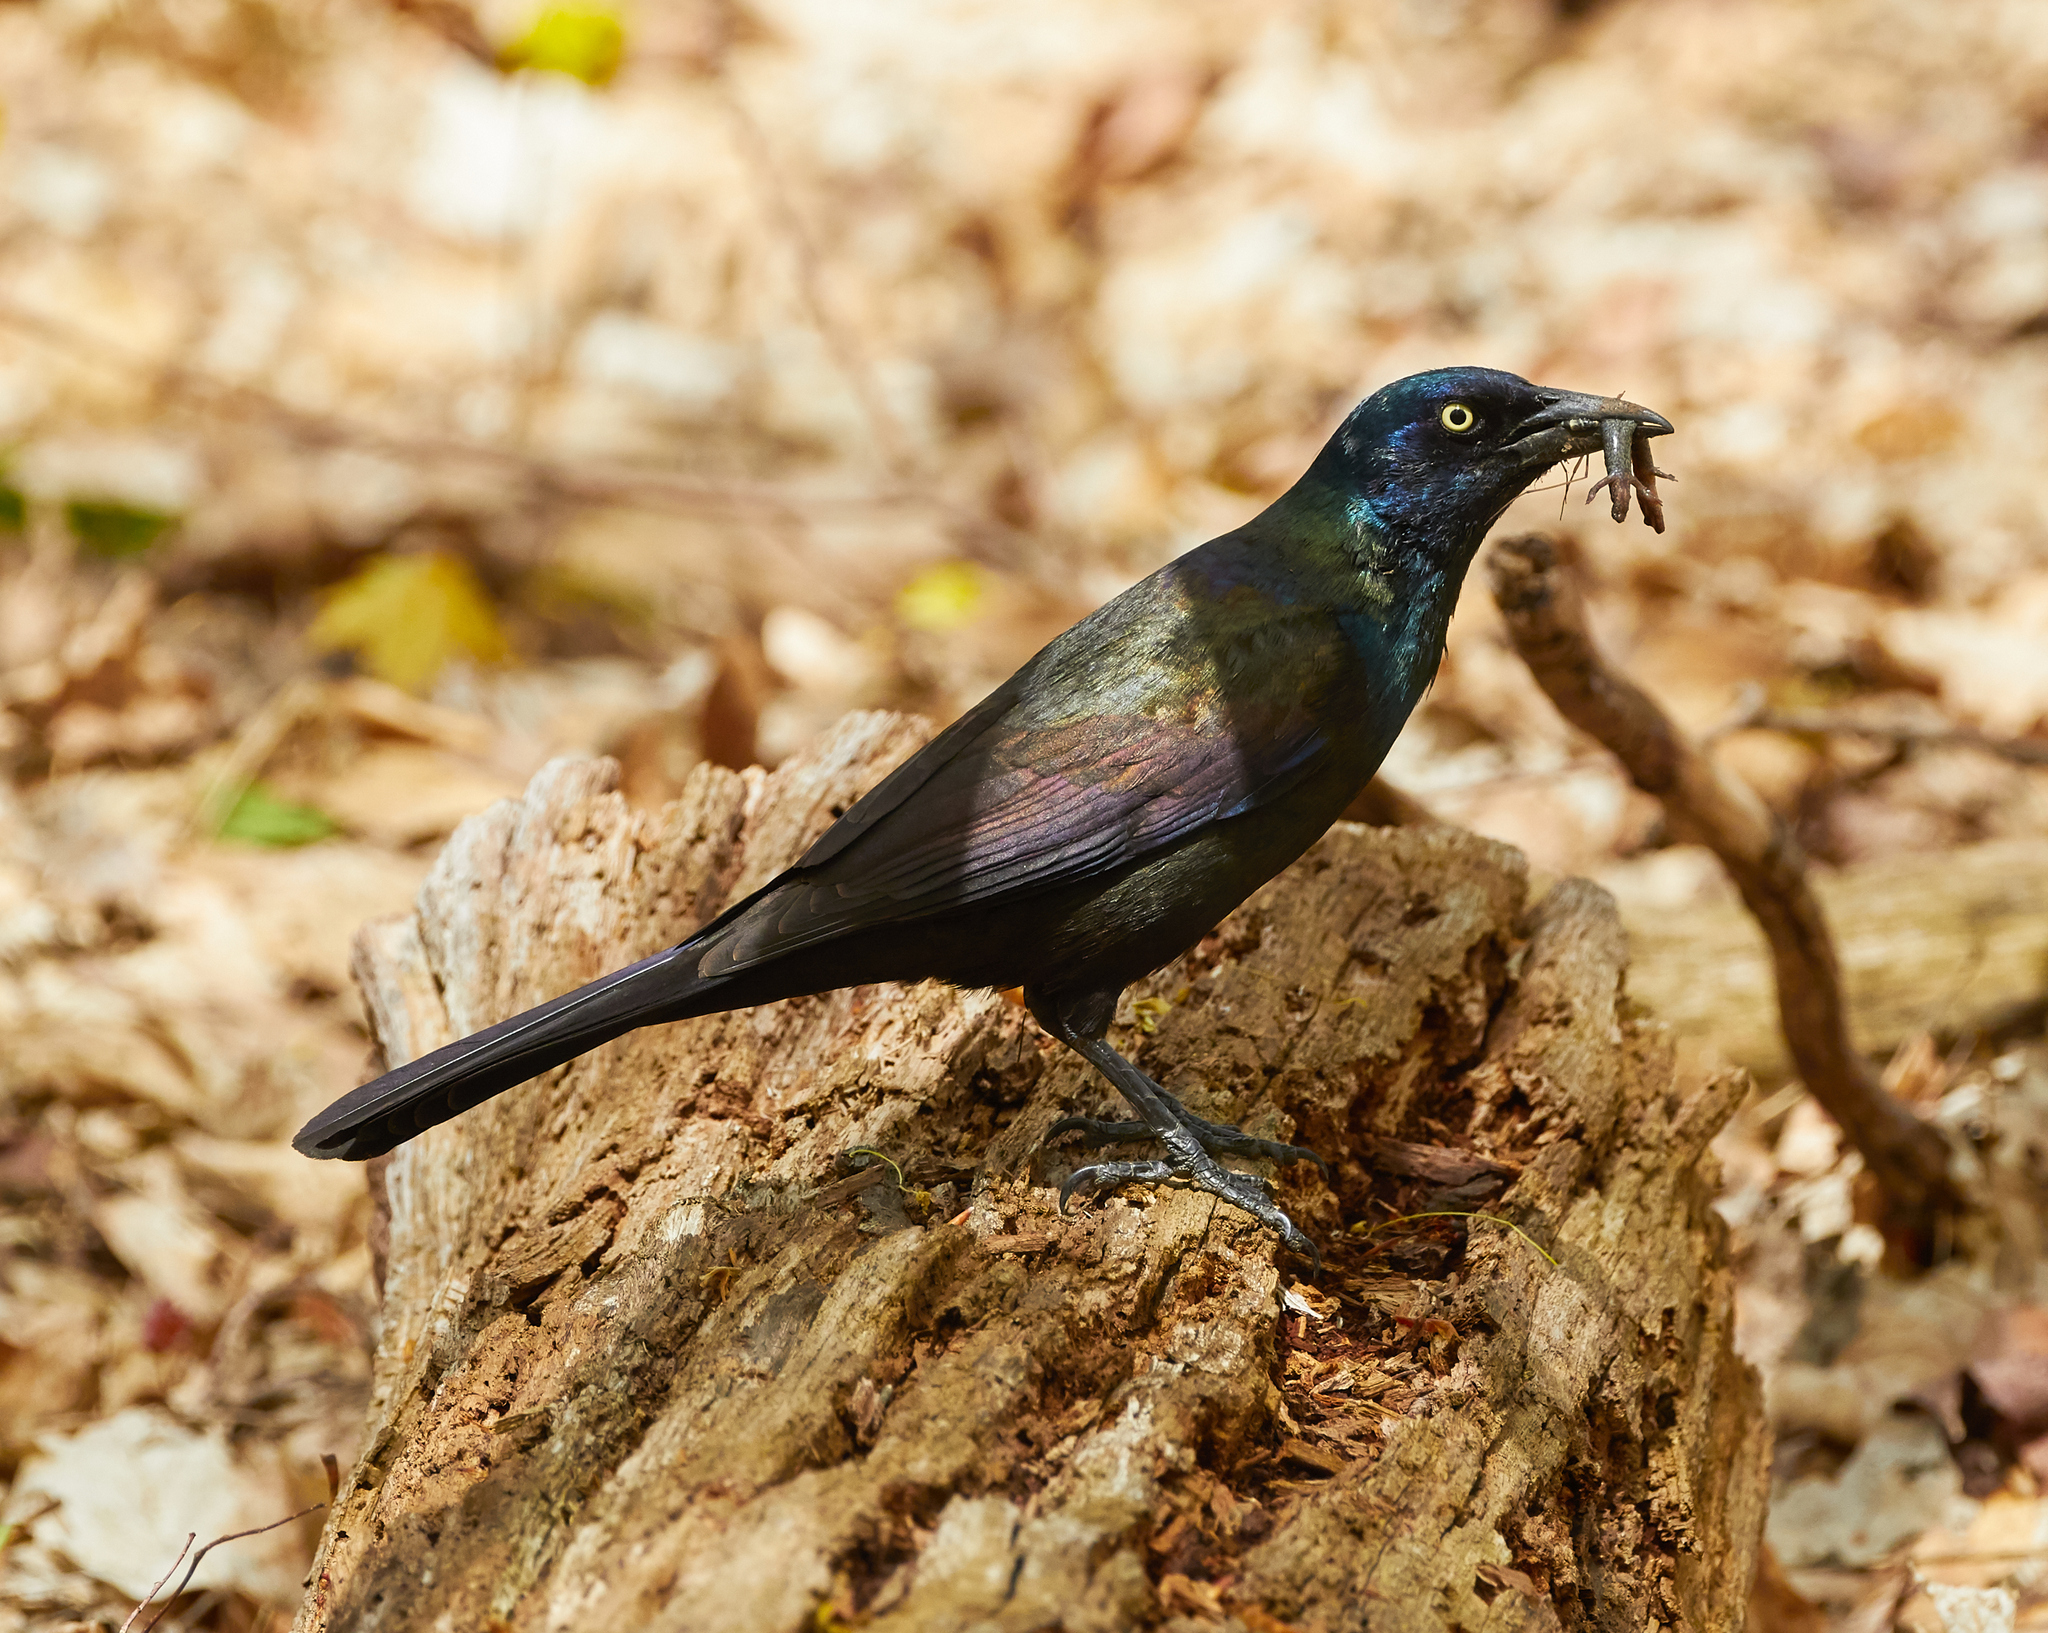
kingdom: Animalia
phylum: Chordata
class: Aves
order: Passeriformes
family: Icteridae
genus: Quiscalus
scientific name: Quiscalus quiscula
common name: Common grackle
